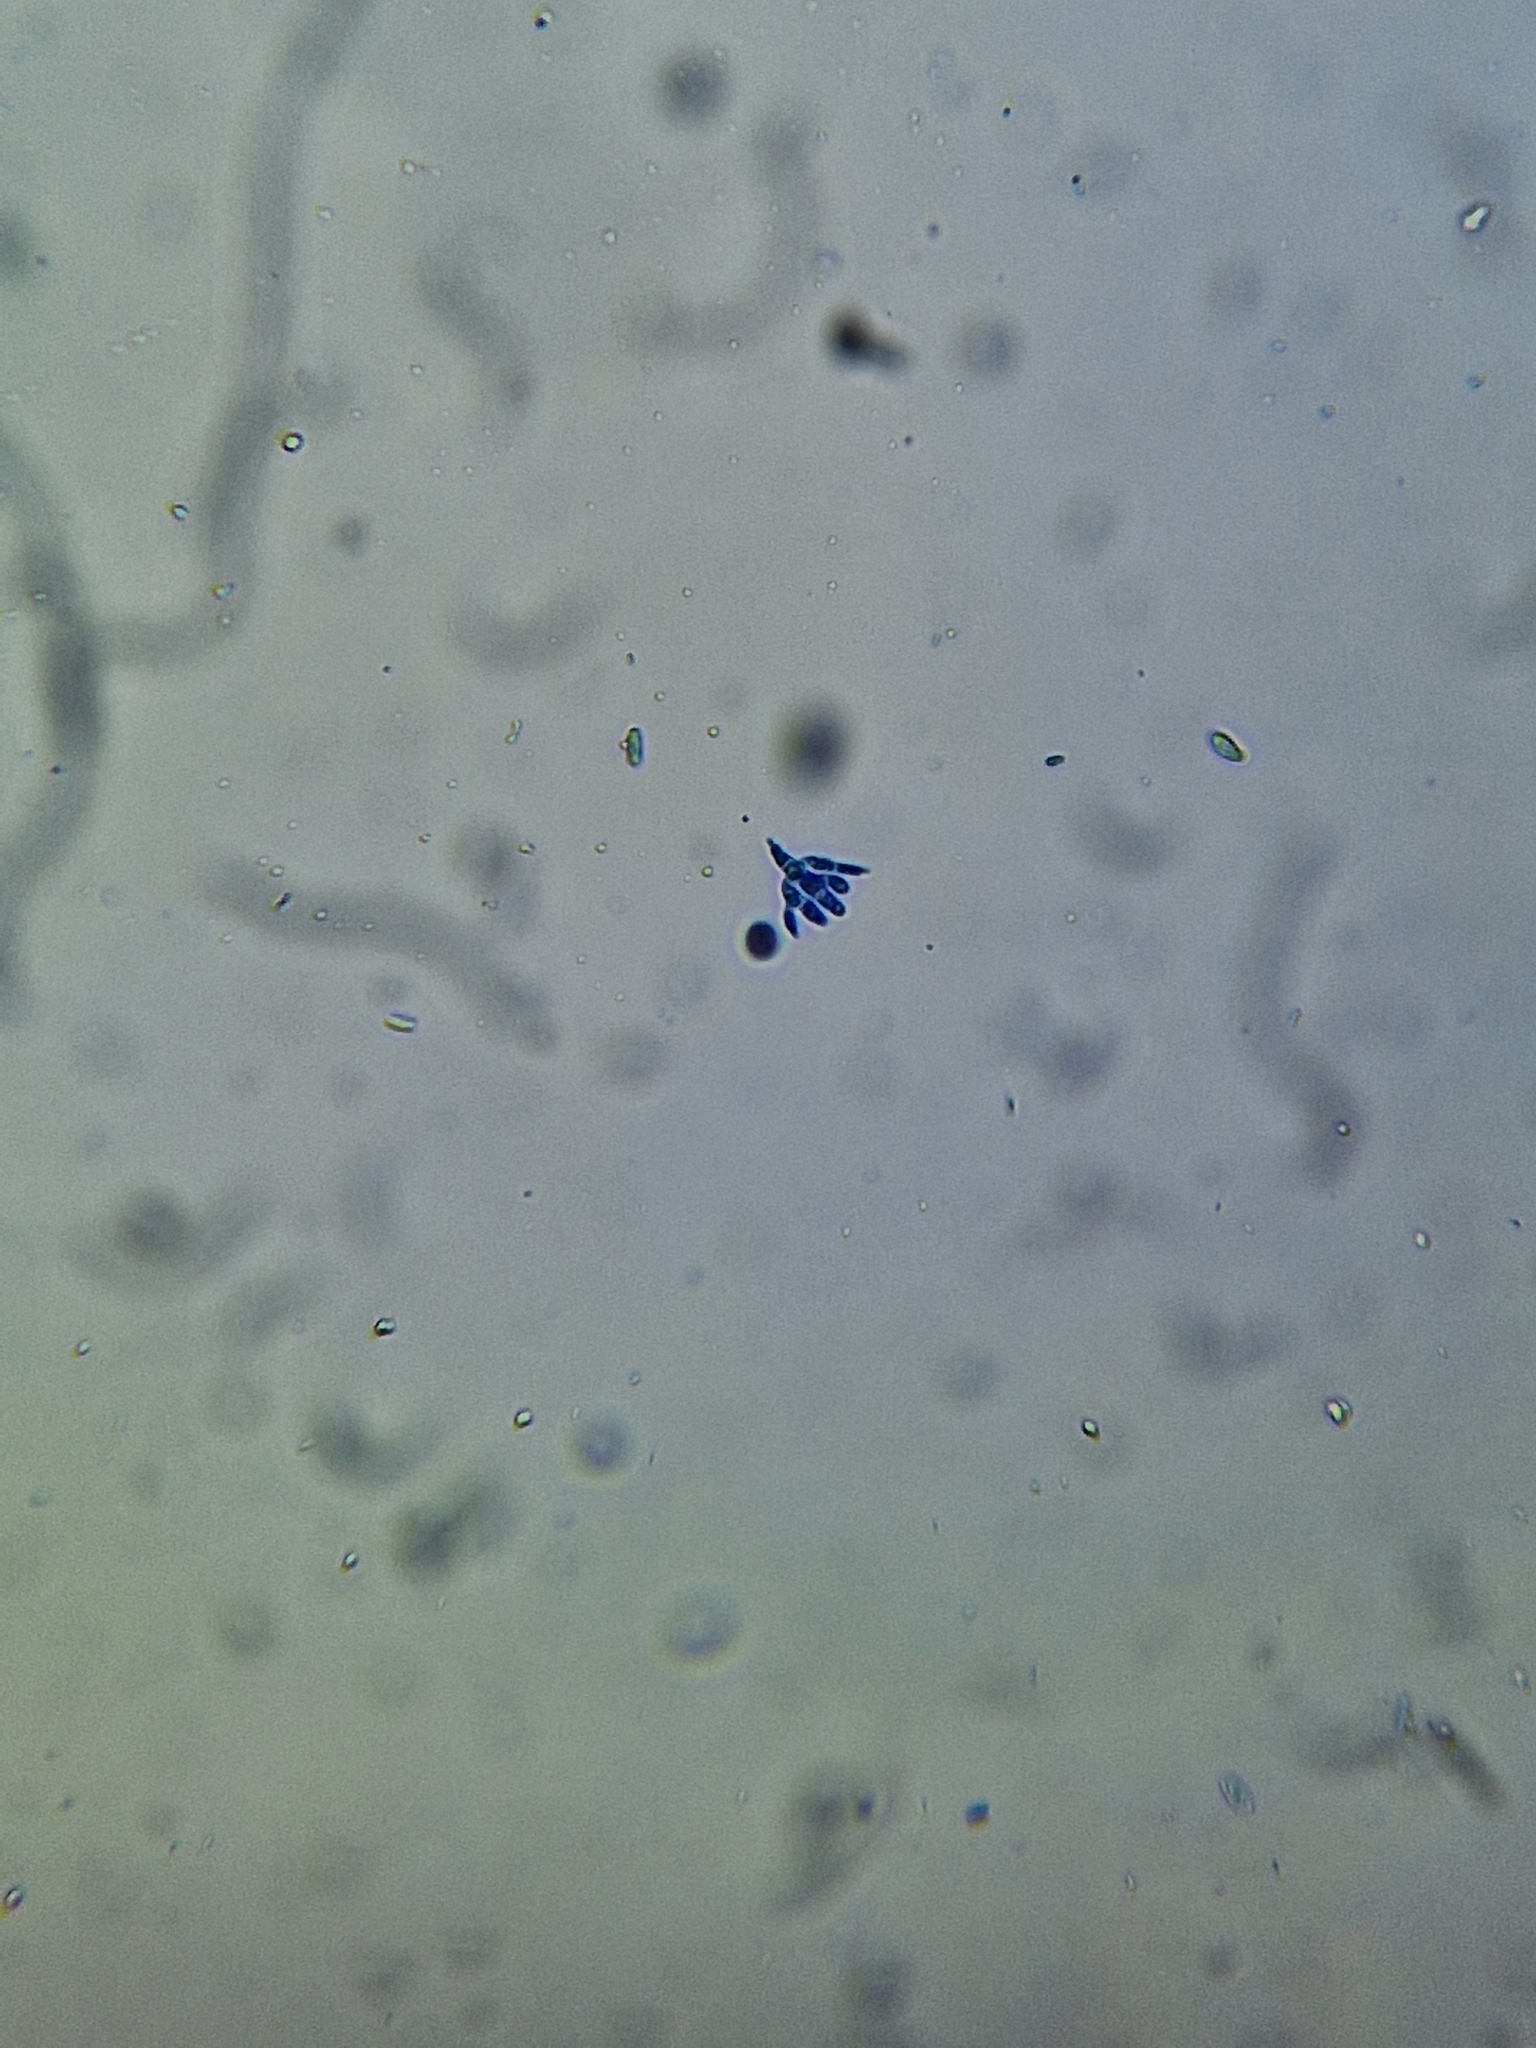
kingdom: Fungi
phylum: Ascomycota
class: Leotiomycetes
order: Helotiales
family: Helotiaceae
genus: Tetracladium
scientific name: Tetracladium setigerum
